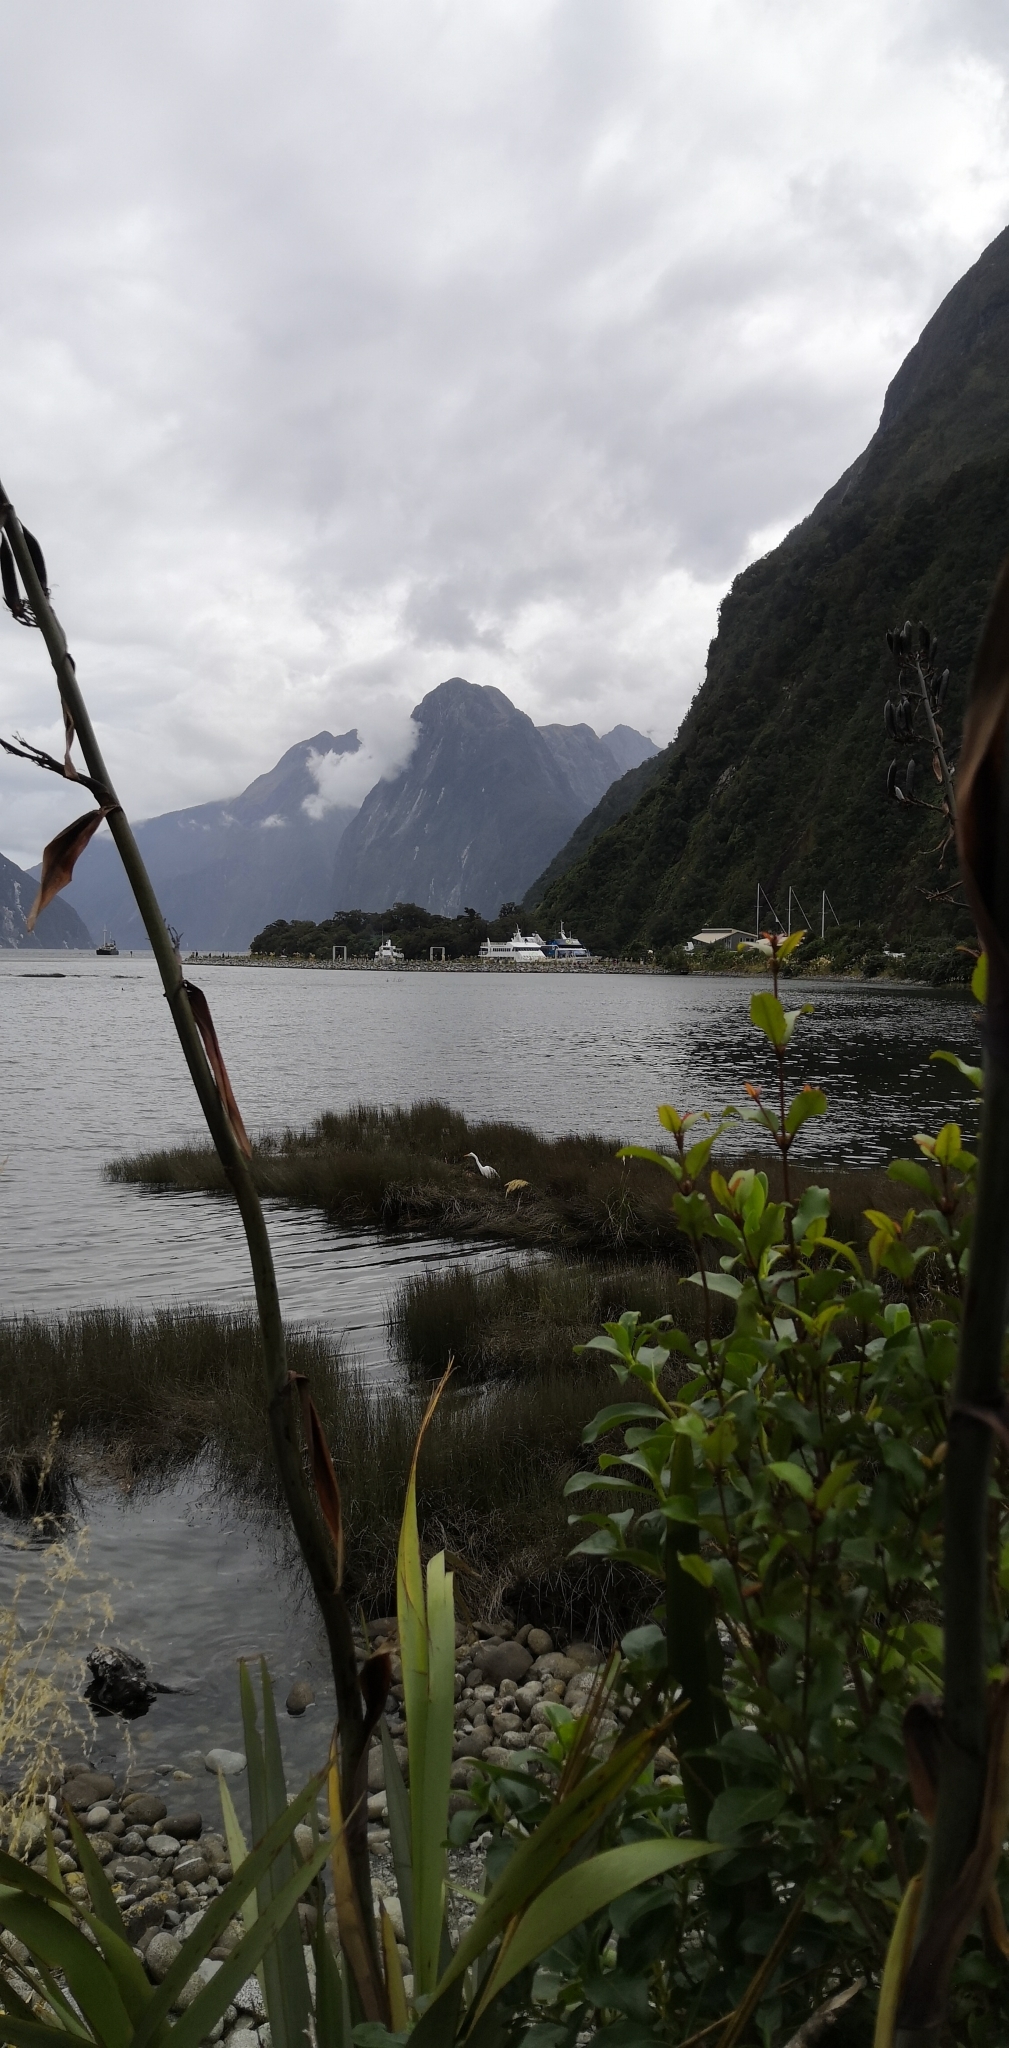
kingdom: Animalia
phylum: Chordata
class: Aves
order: Pelecaniformes
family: Ardeidae
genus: Ardea
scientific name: Ardea modesta
